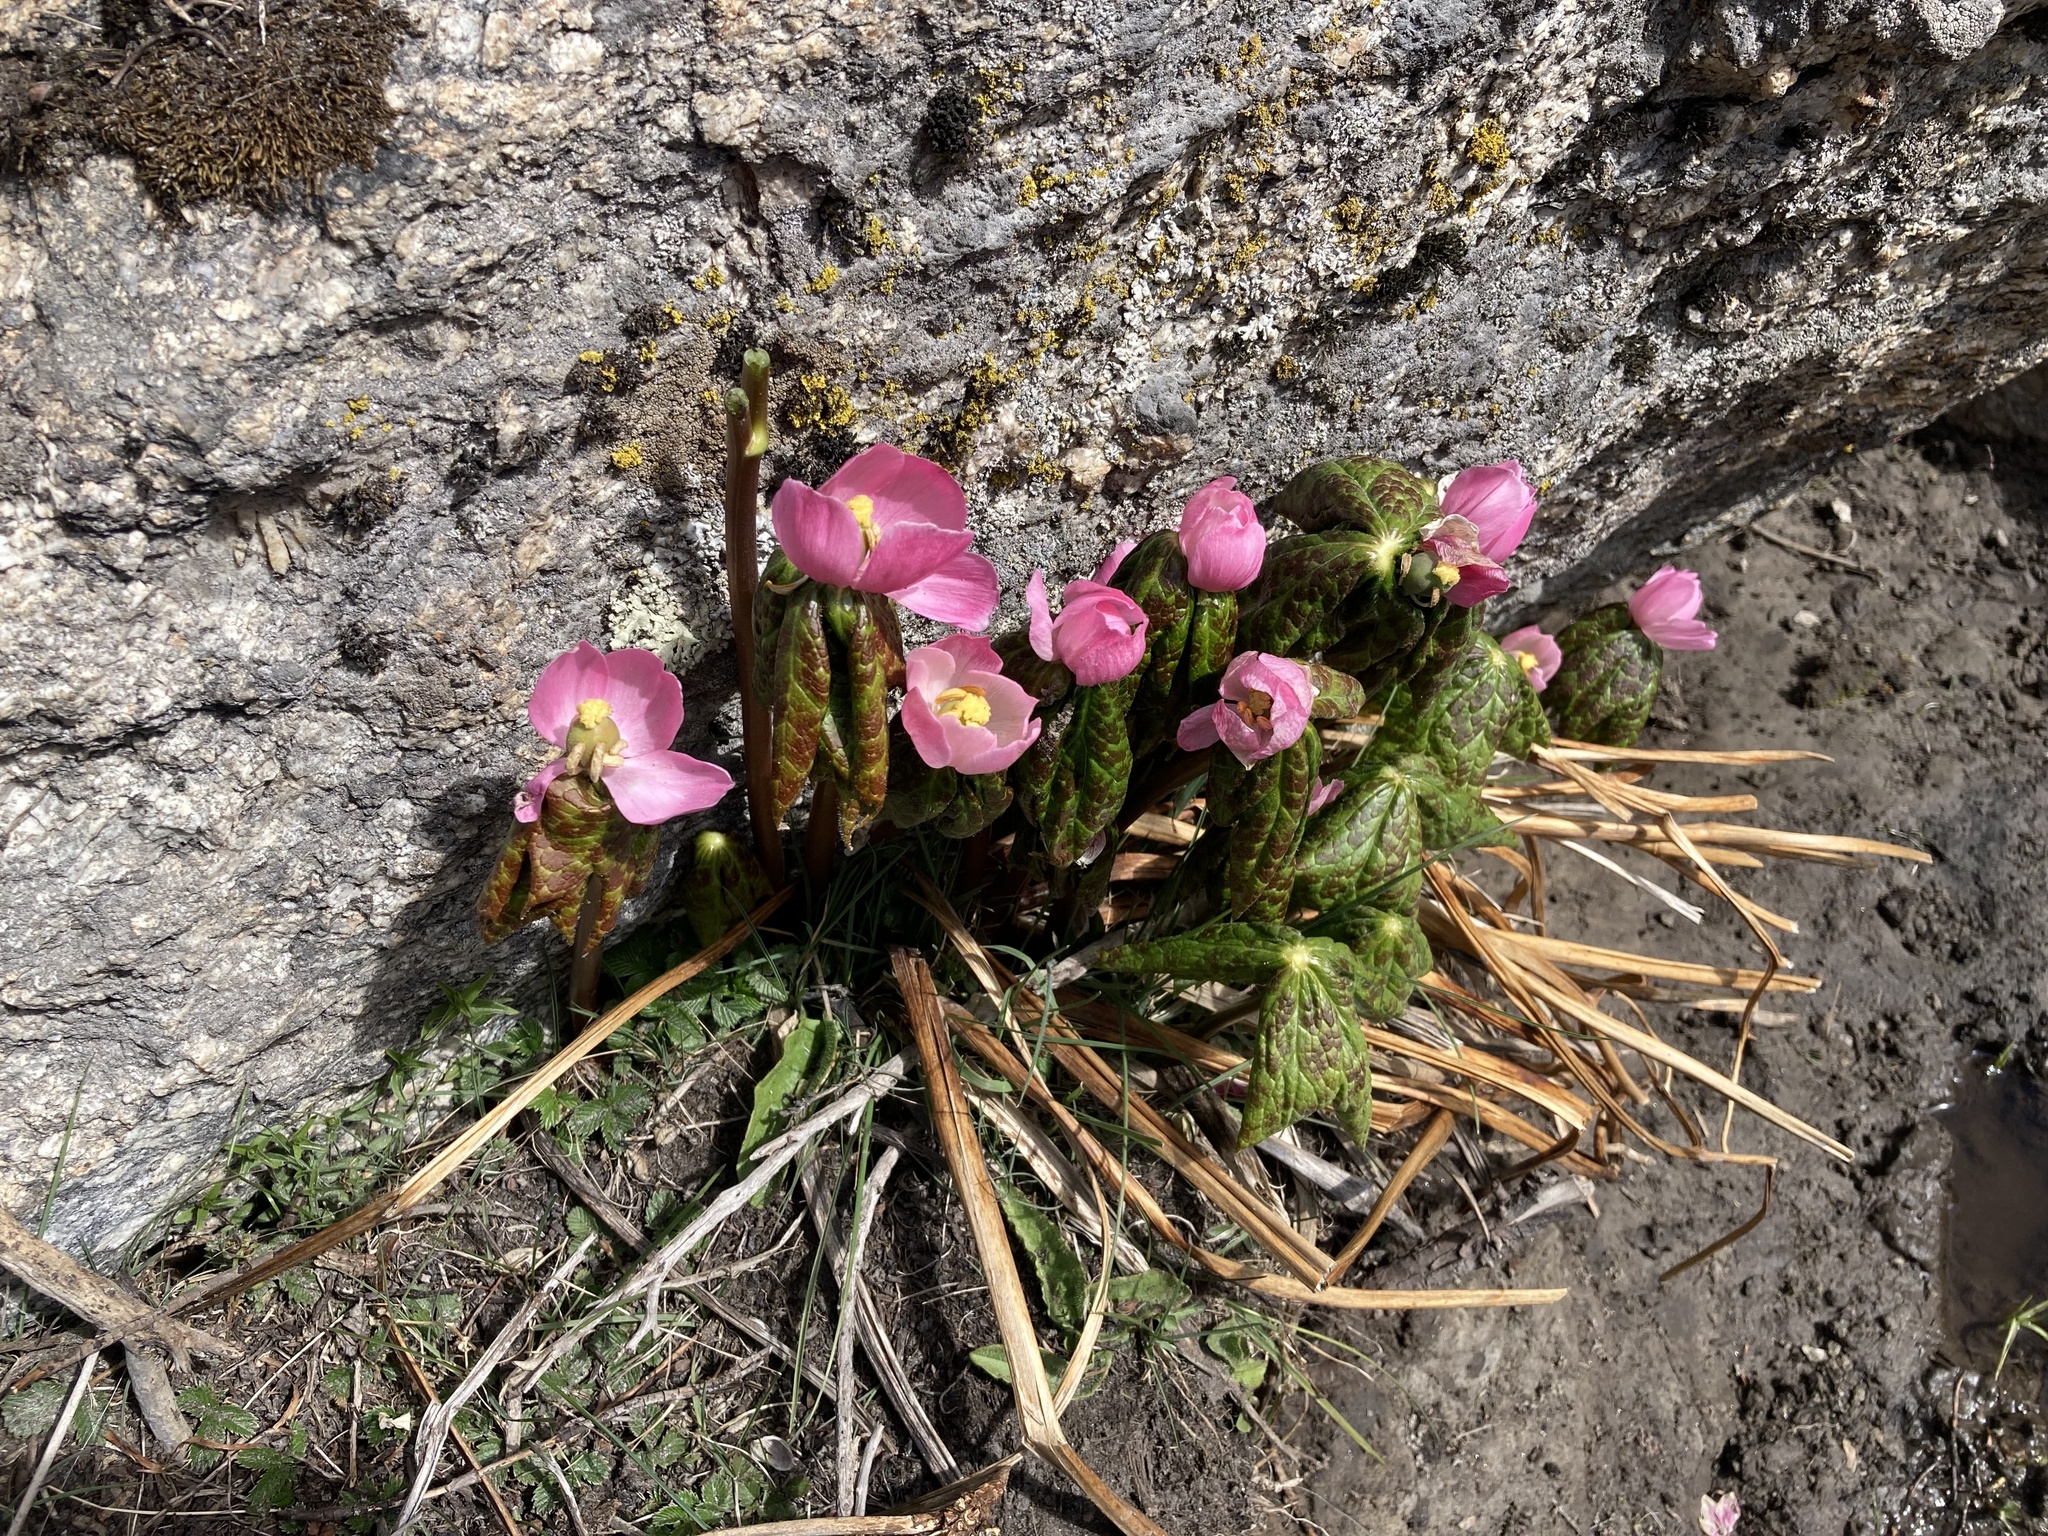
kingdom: Plantae
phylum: Tracheophyta
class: Magnoliopsida
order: Ranunculales
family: Berberidaceae
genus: Sinopodophyllum
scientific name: Sinopodophyllum hexandrum
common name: Himalayan may-apple
